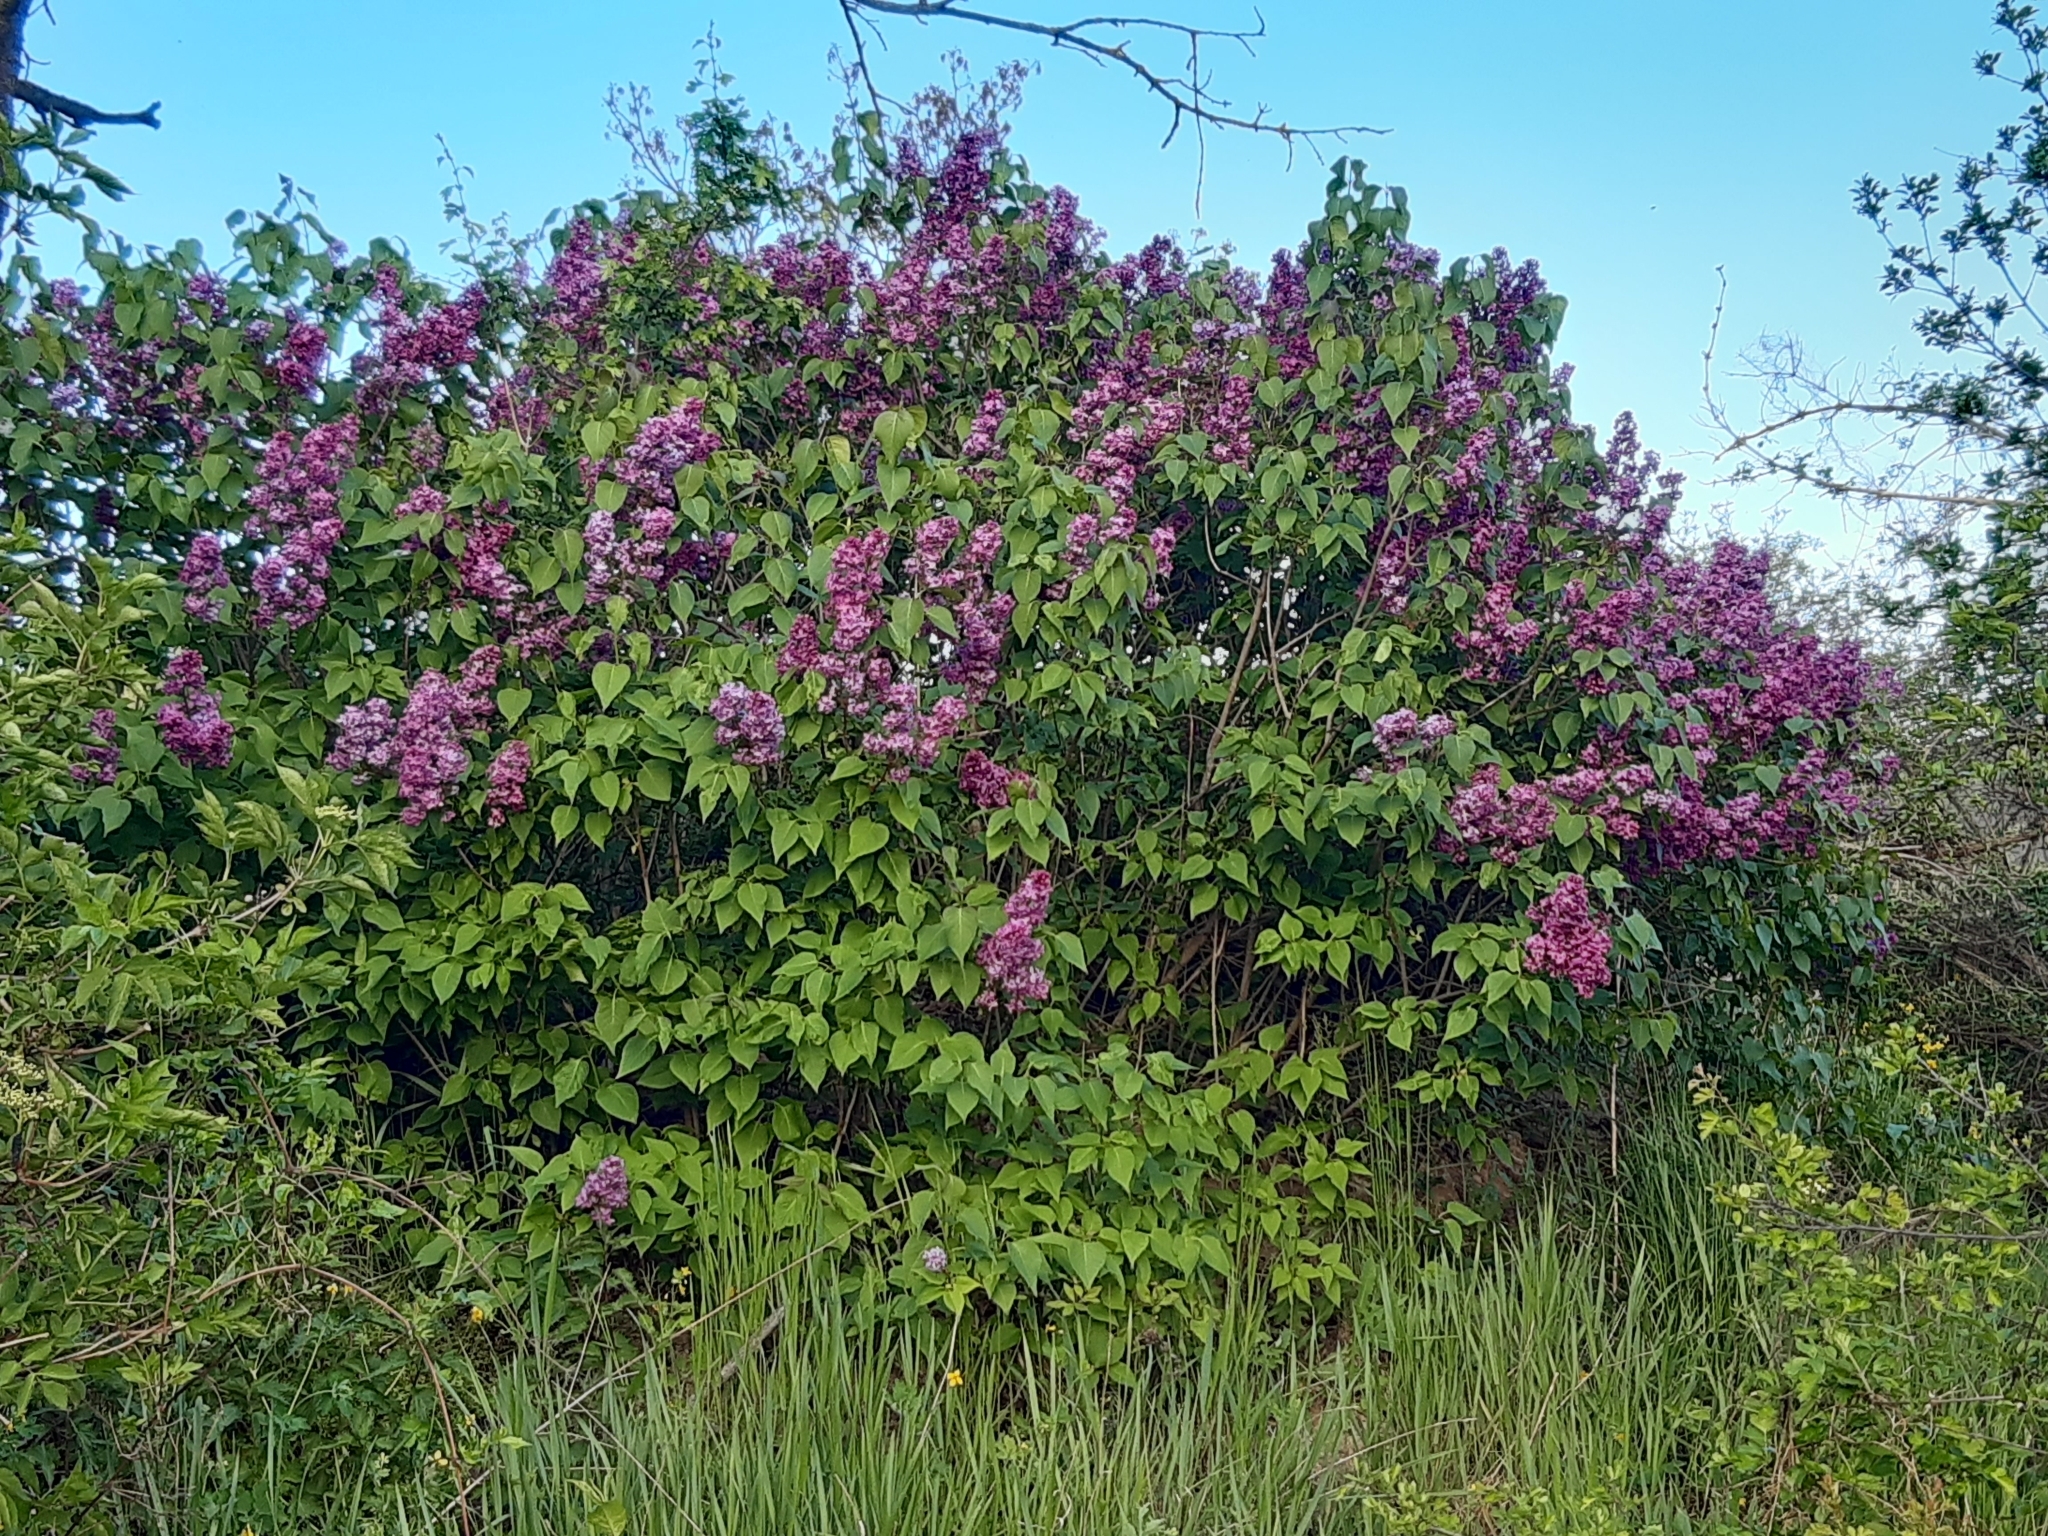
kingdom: Plantae
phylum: Tracheophyta
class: Magnoliopsida
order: Lamiales
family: Oleaceae
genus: Syringa
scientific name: Syringa vulgaris
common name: Common lilac
